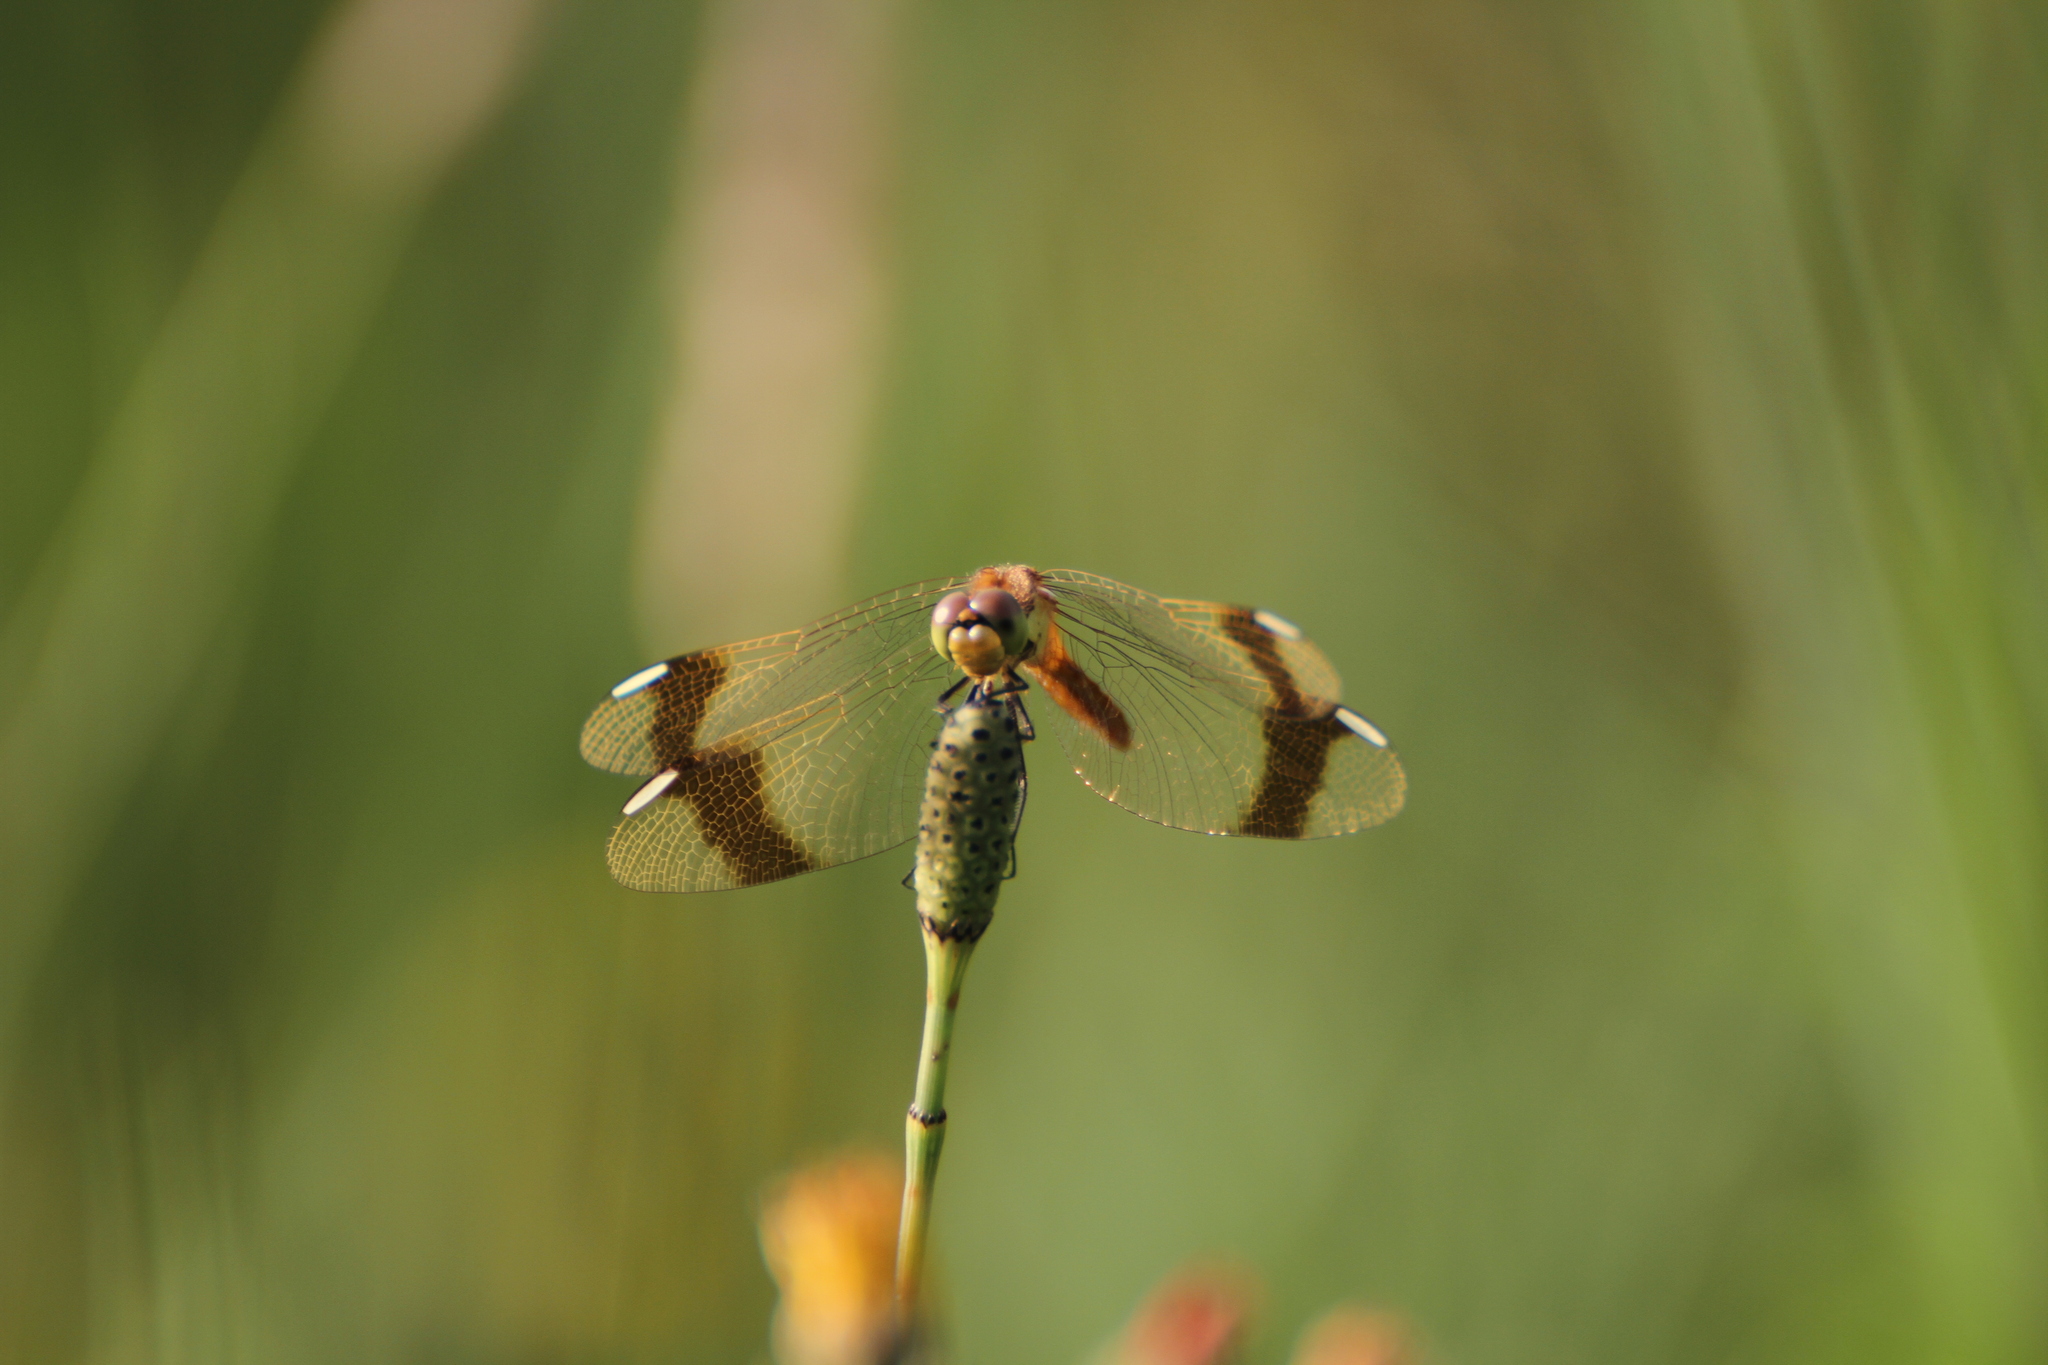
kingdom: Animalia
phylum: Arthropoda
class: Insecta
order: Odonata
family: Libellulidae
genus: Sympetrum
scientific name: Sympetrum pedemontanum
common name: Banded darter
